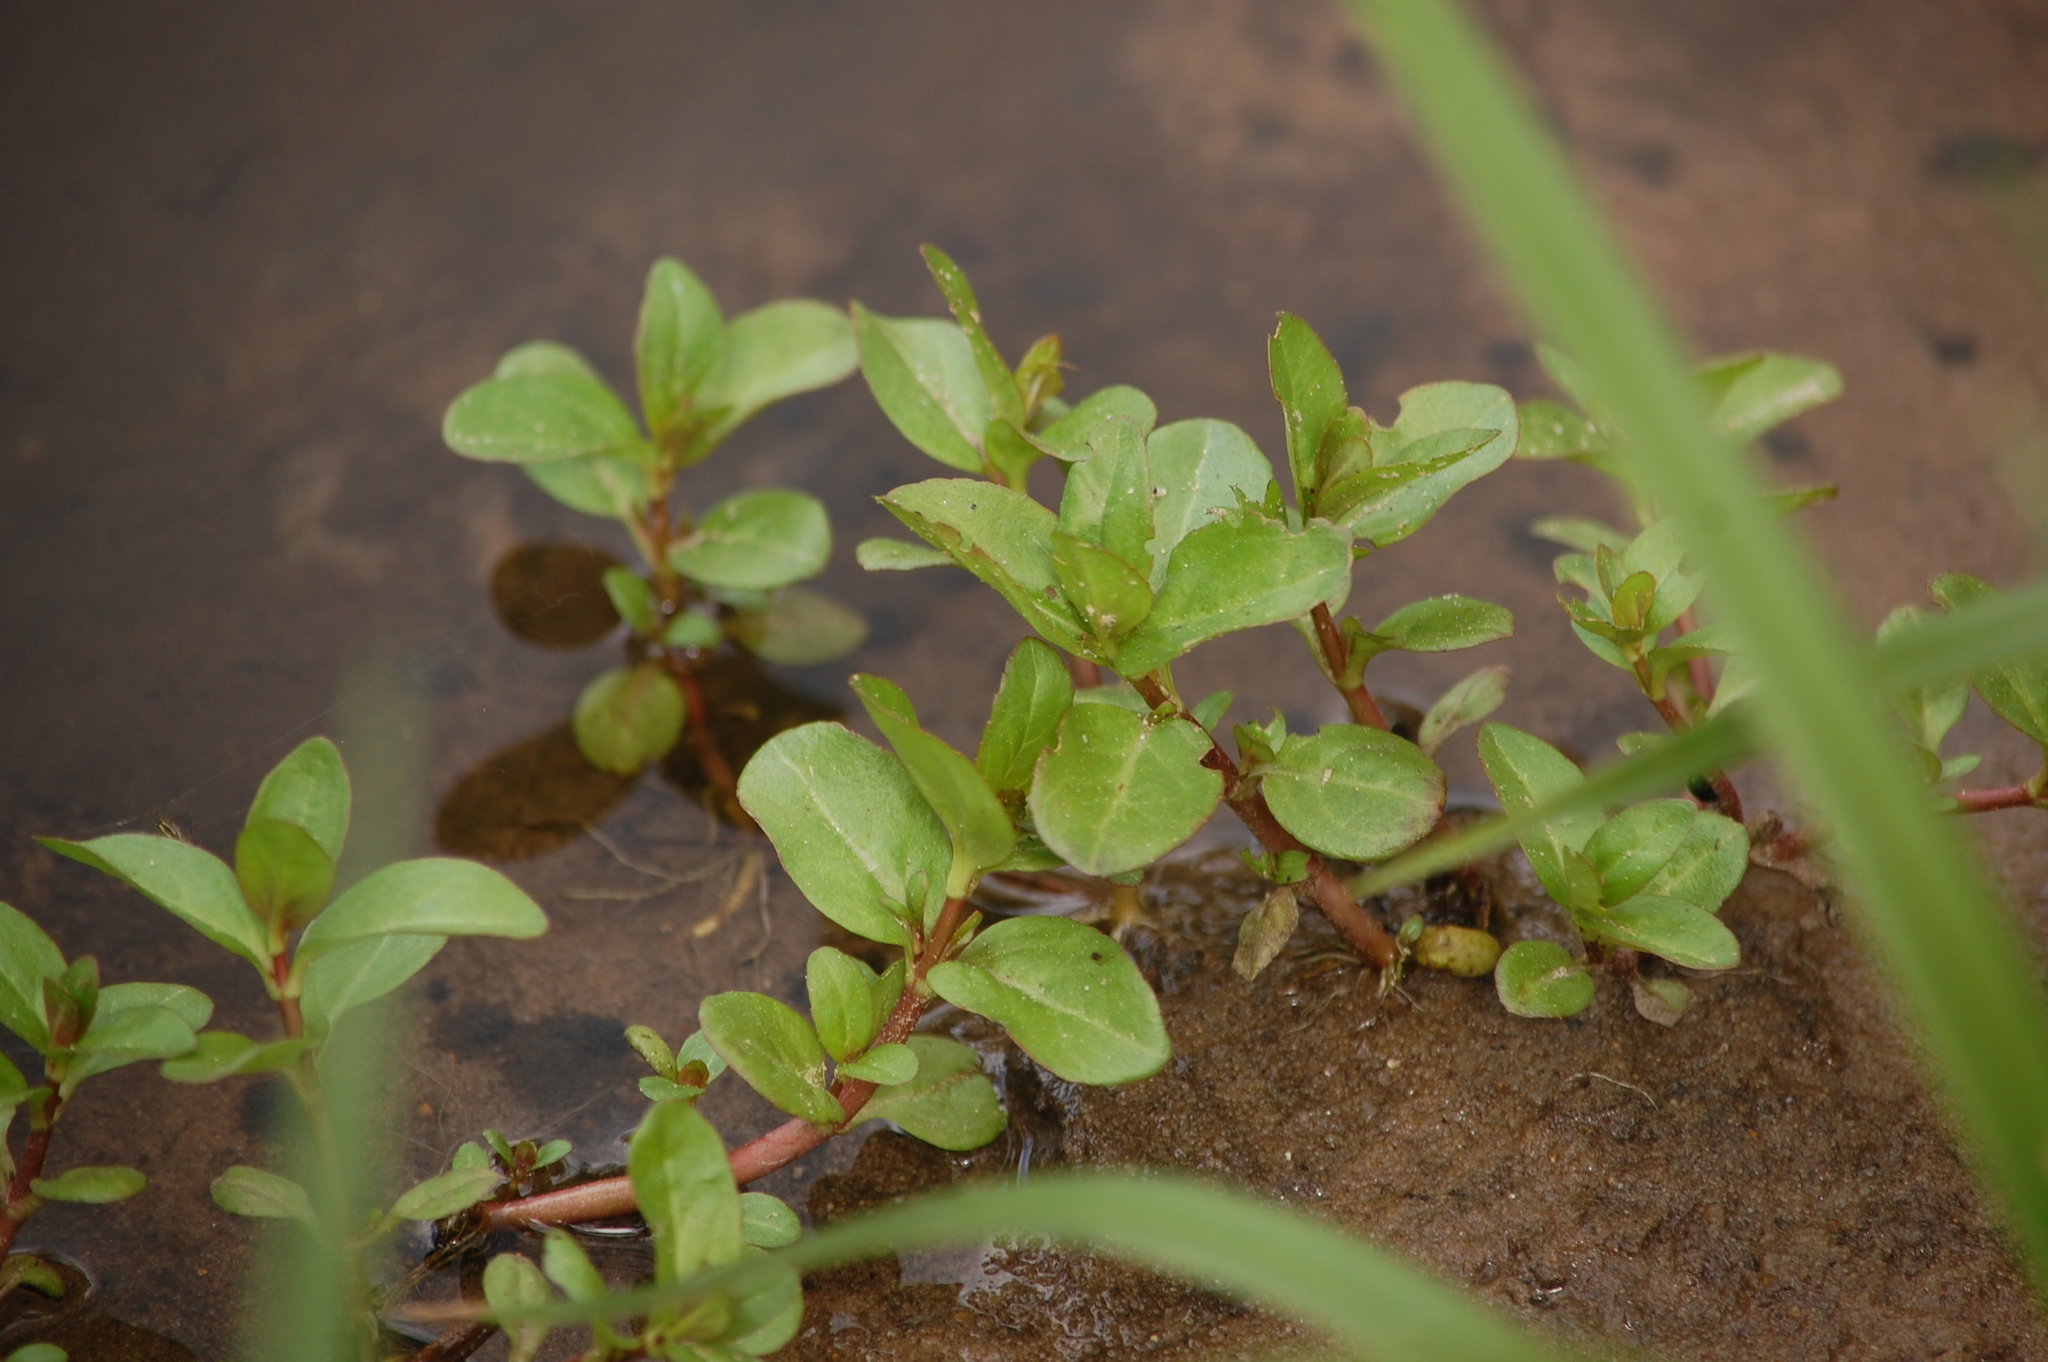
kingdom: Plantae
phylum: Tracheophyta
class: Magnoliopsida
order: Lamiales
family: Plantaginaceae
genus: Veronica
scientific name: Veronica beccabunga
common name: Brooklime
